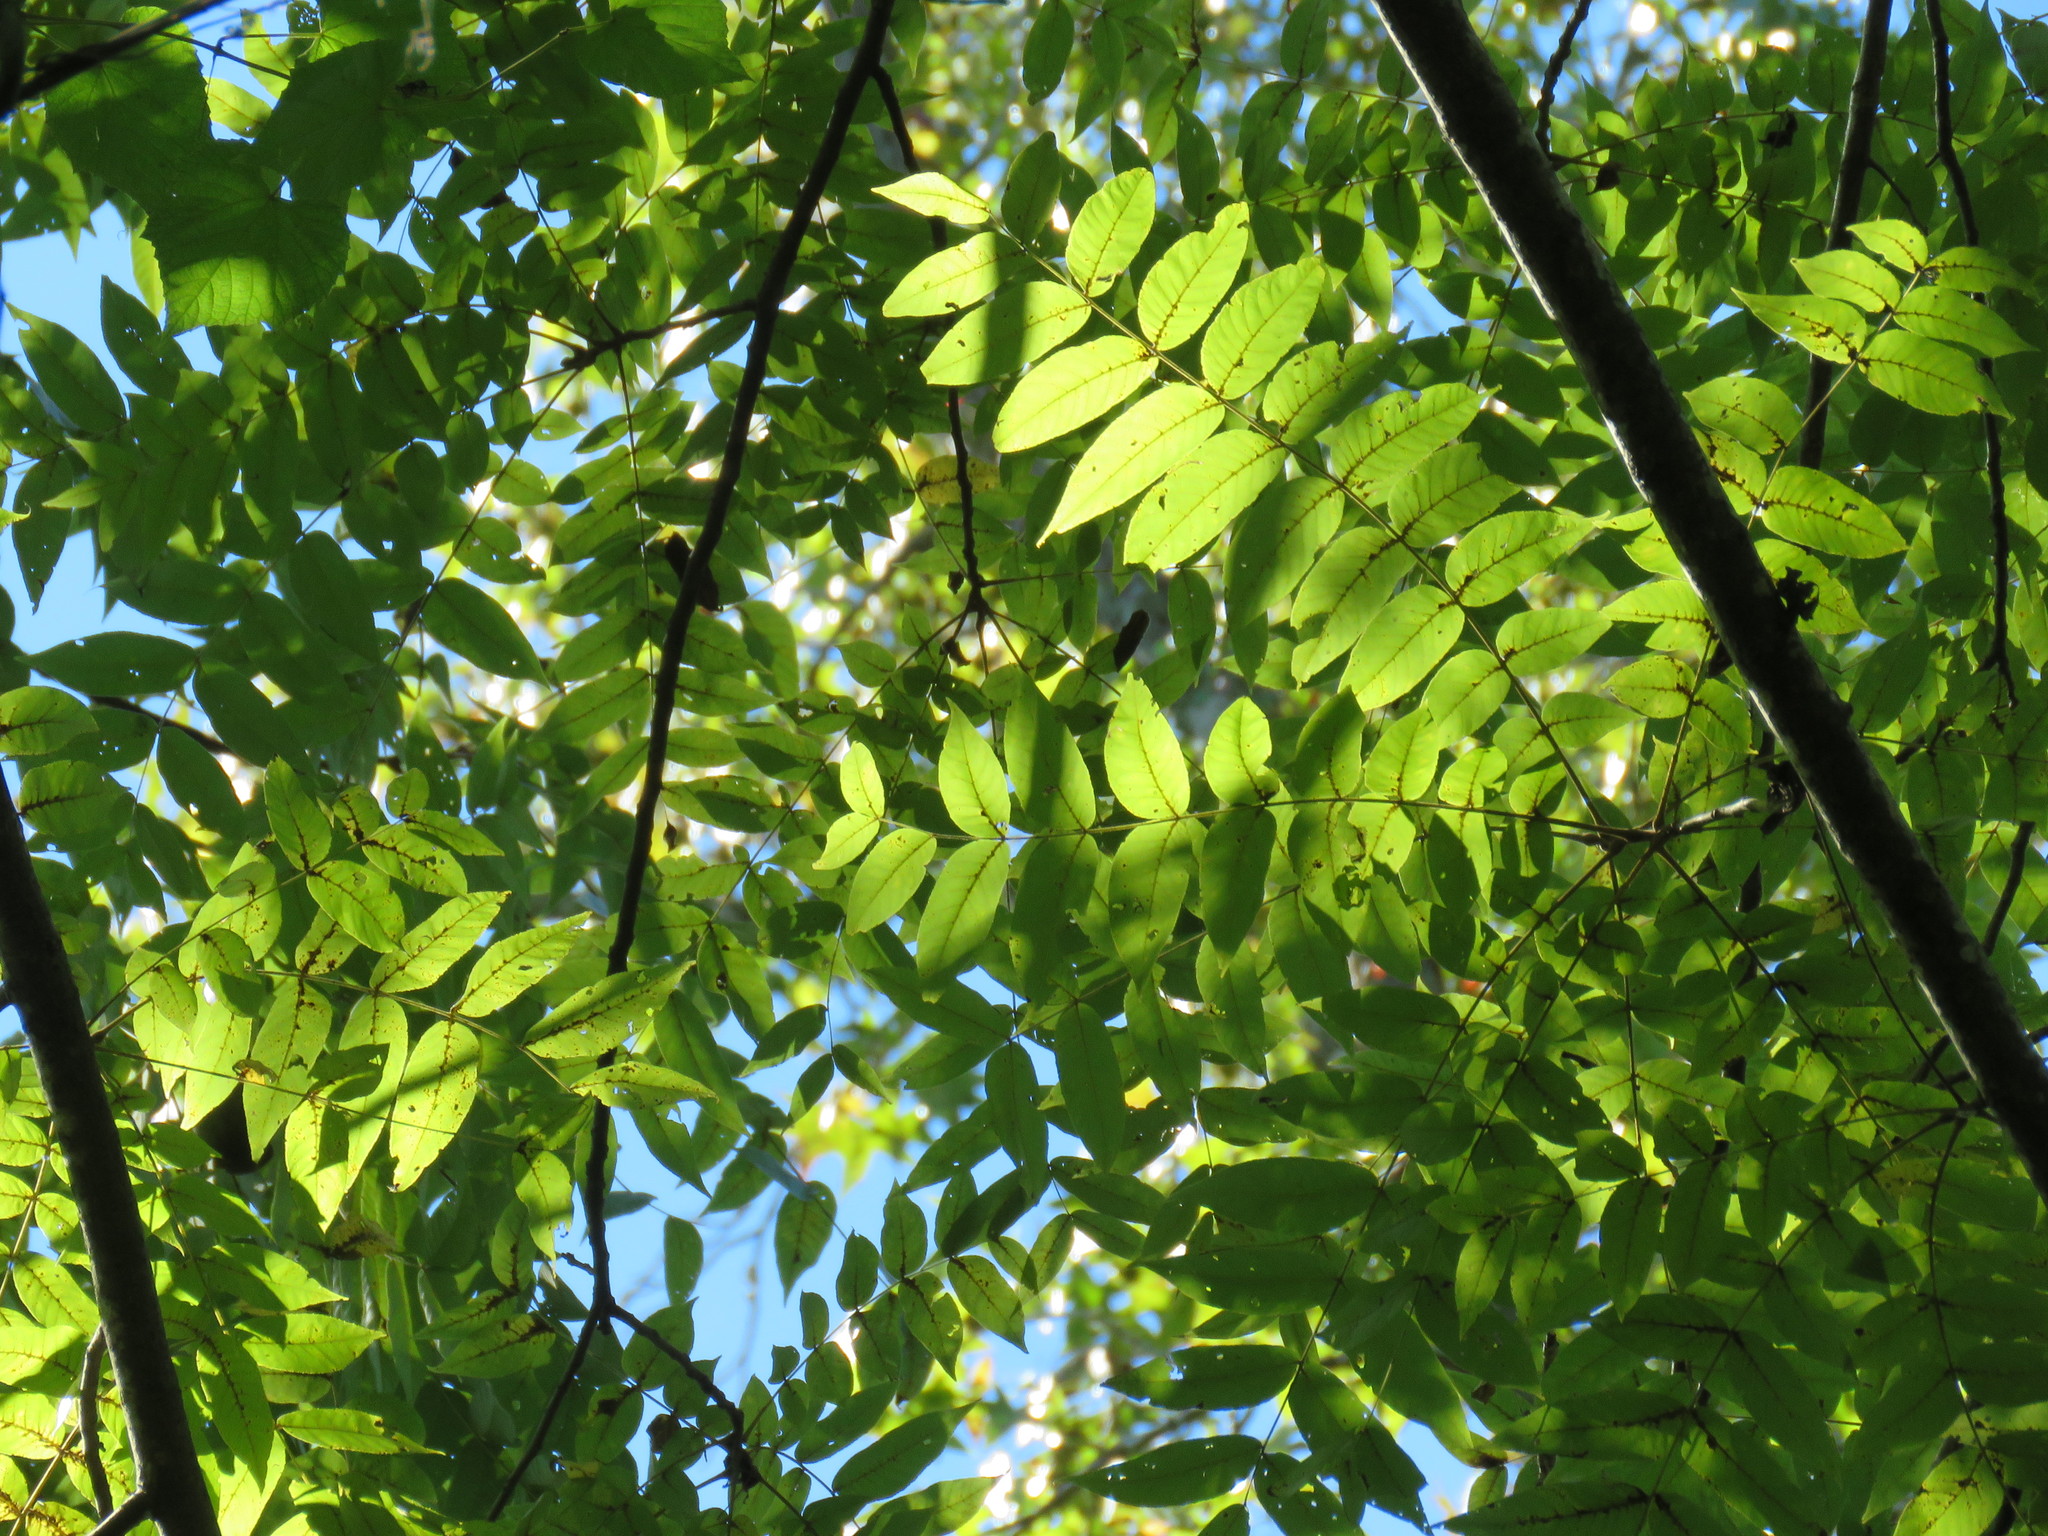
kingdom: Plantae
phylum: Tracheophyta
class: Magnoliopsida
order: Fagales
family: Juglandaceae
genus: Juglans
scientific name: Juglans nigra
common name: Black walnut
